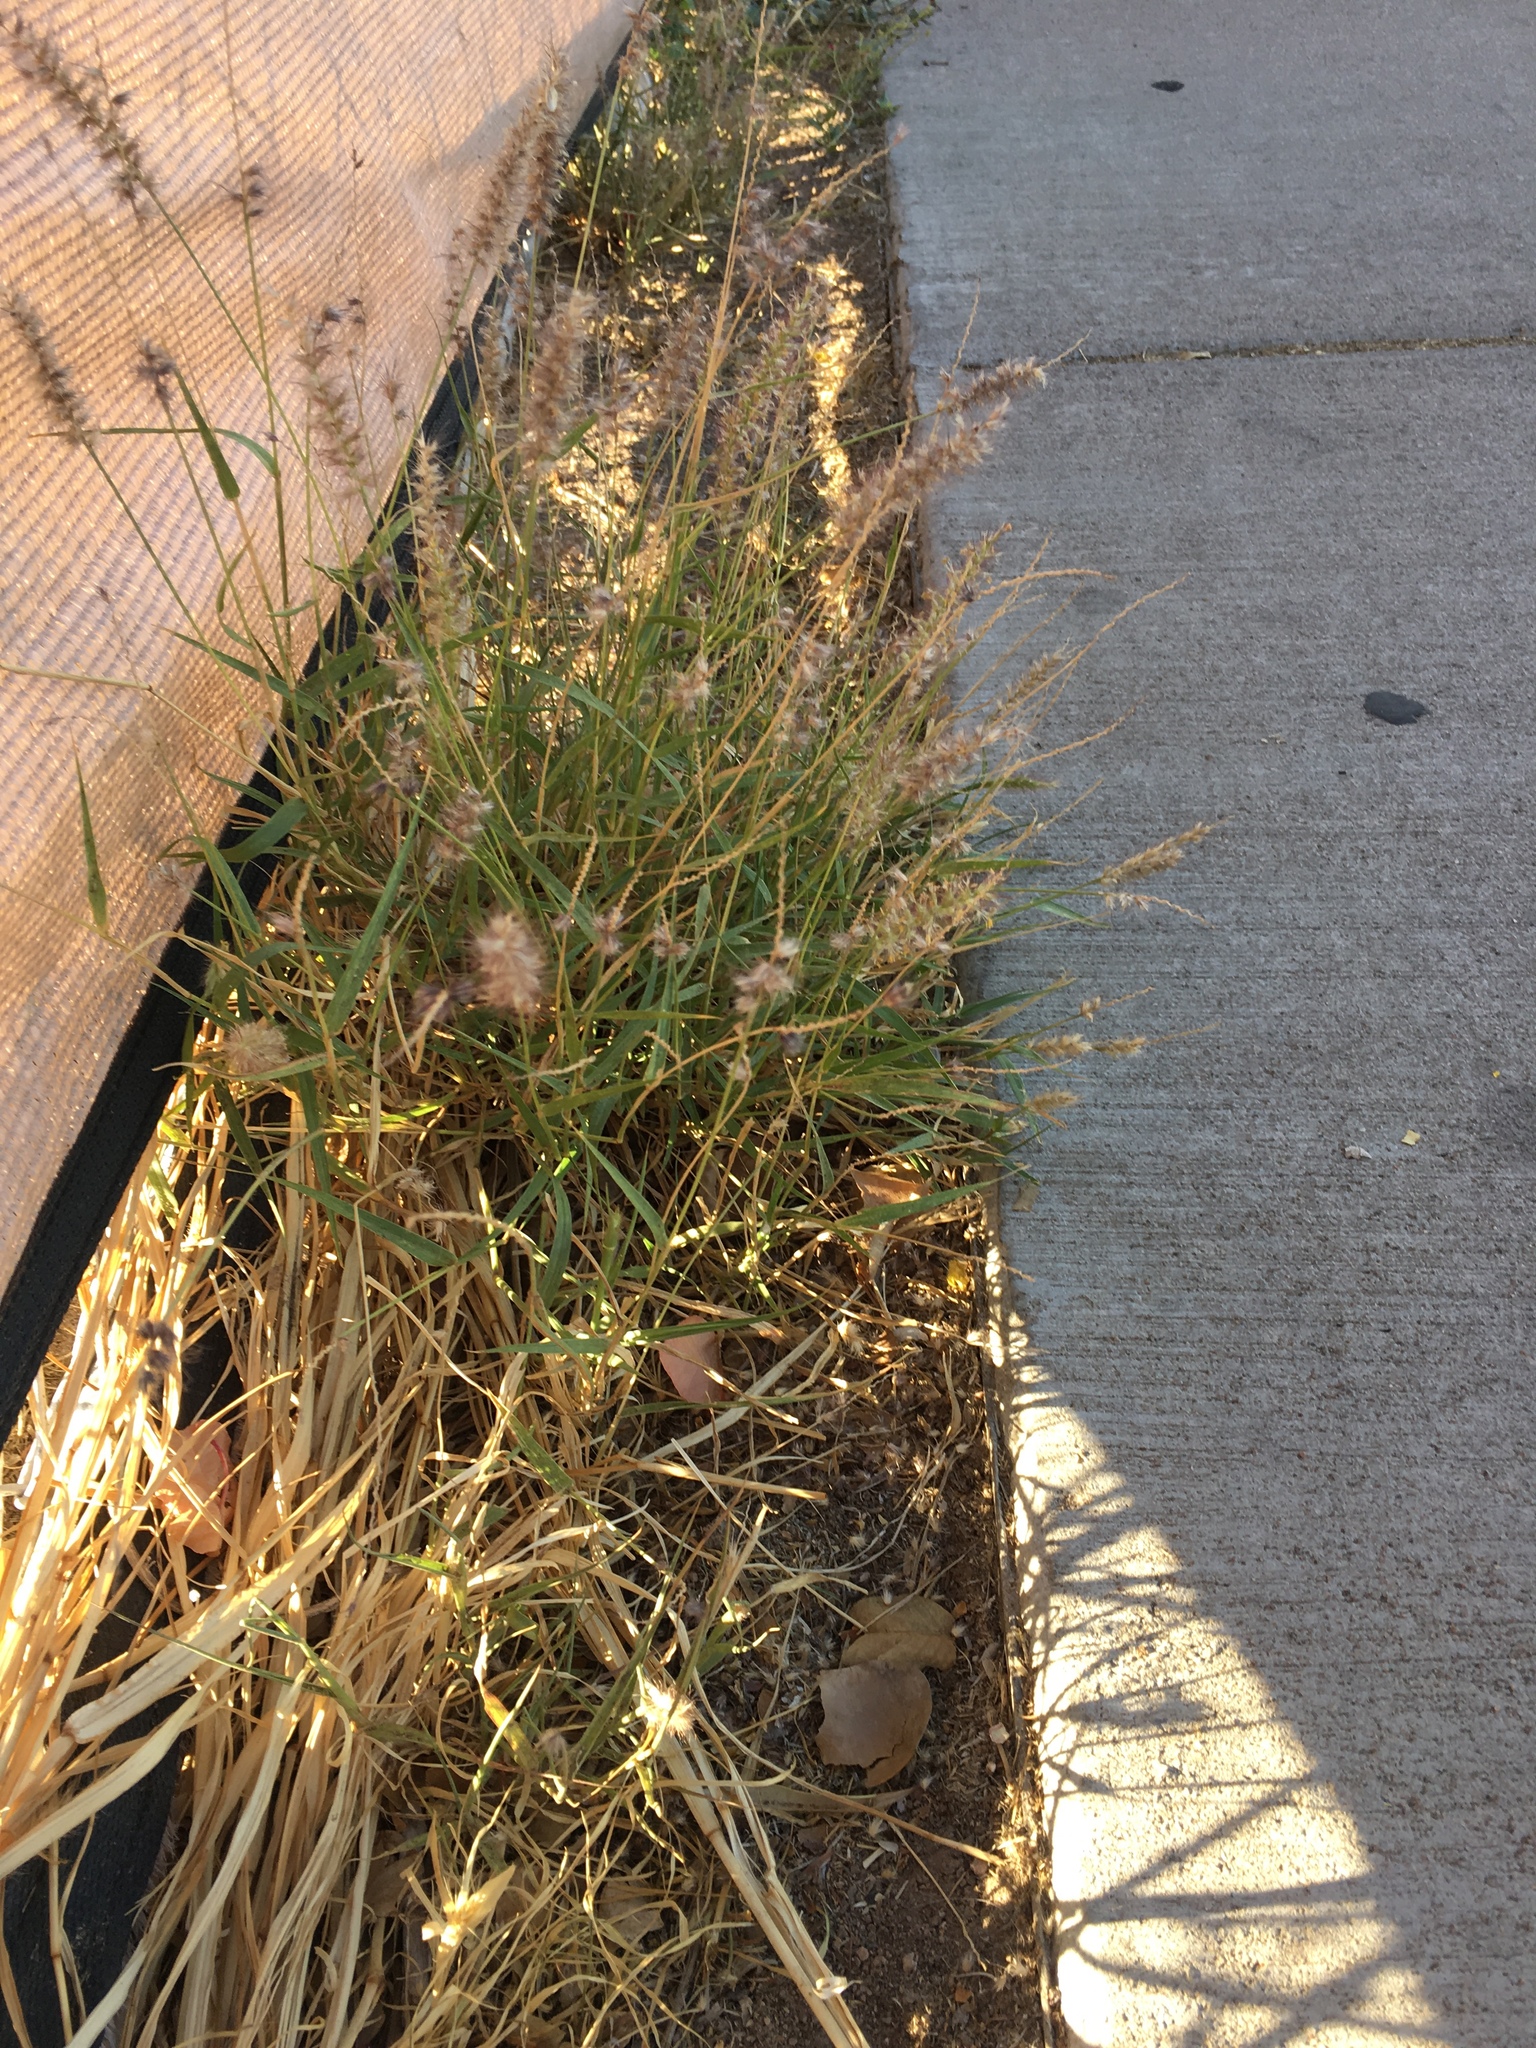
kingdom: Plantae
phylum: Tracheophyta
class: Liliopsida
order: Poales
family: Poaceae
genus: Cenchrus
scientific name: Cenchrus ciliaris
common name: Buffelgrass
